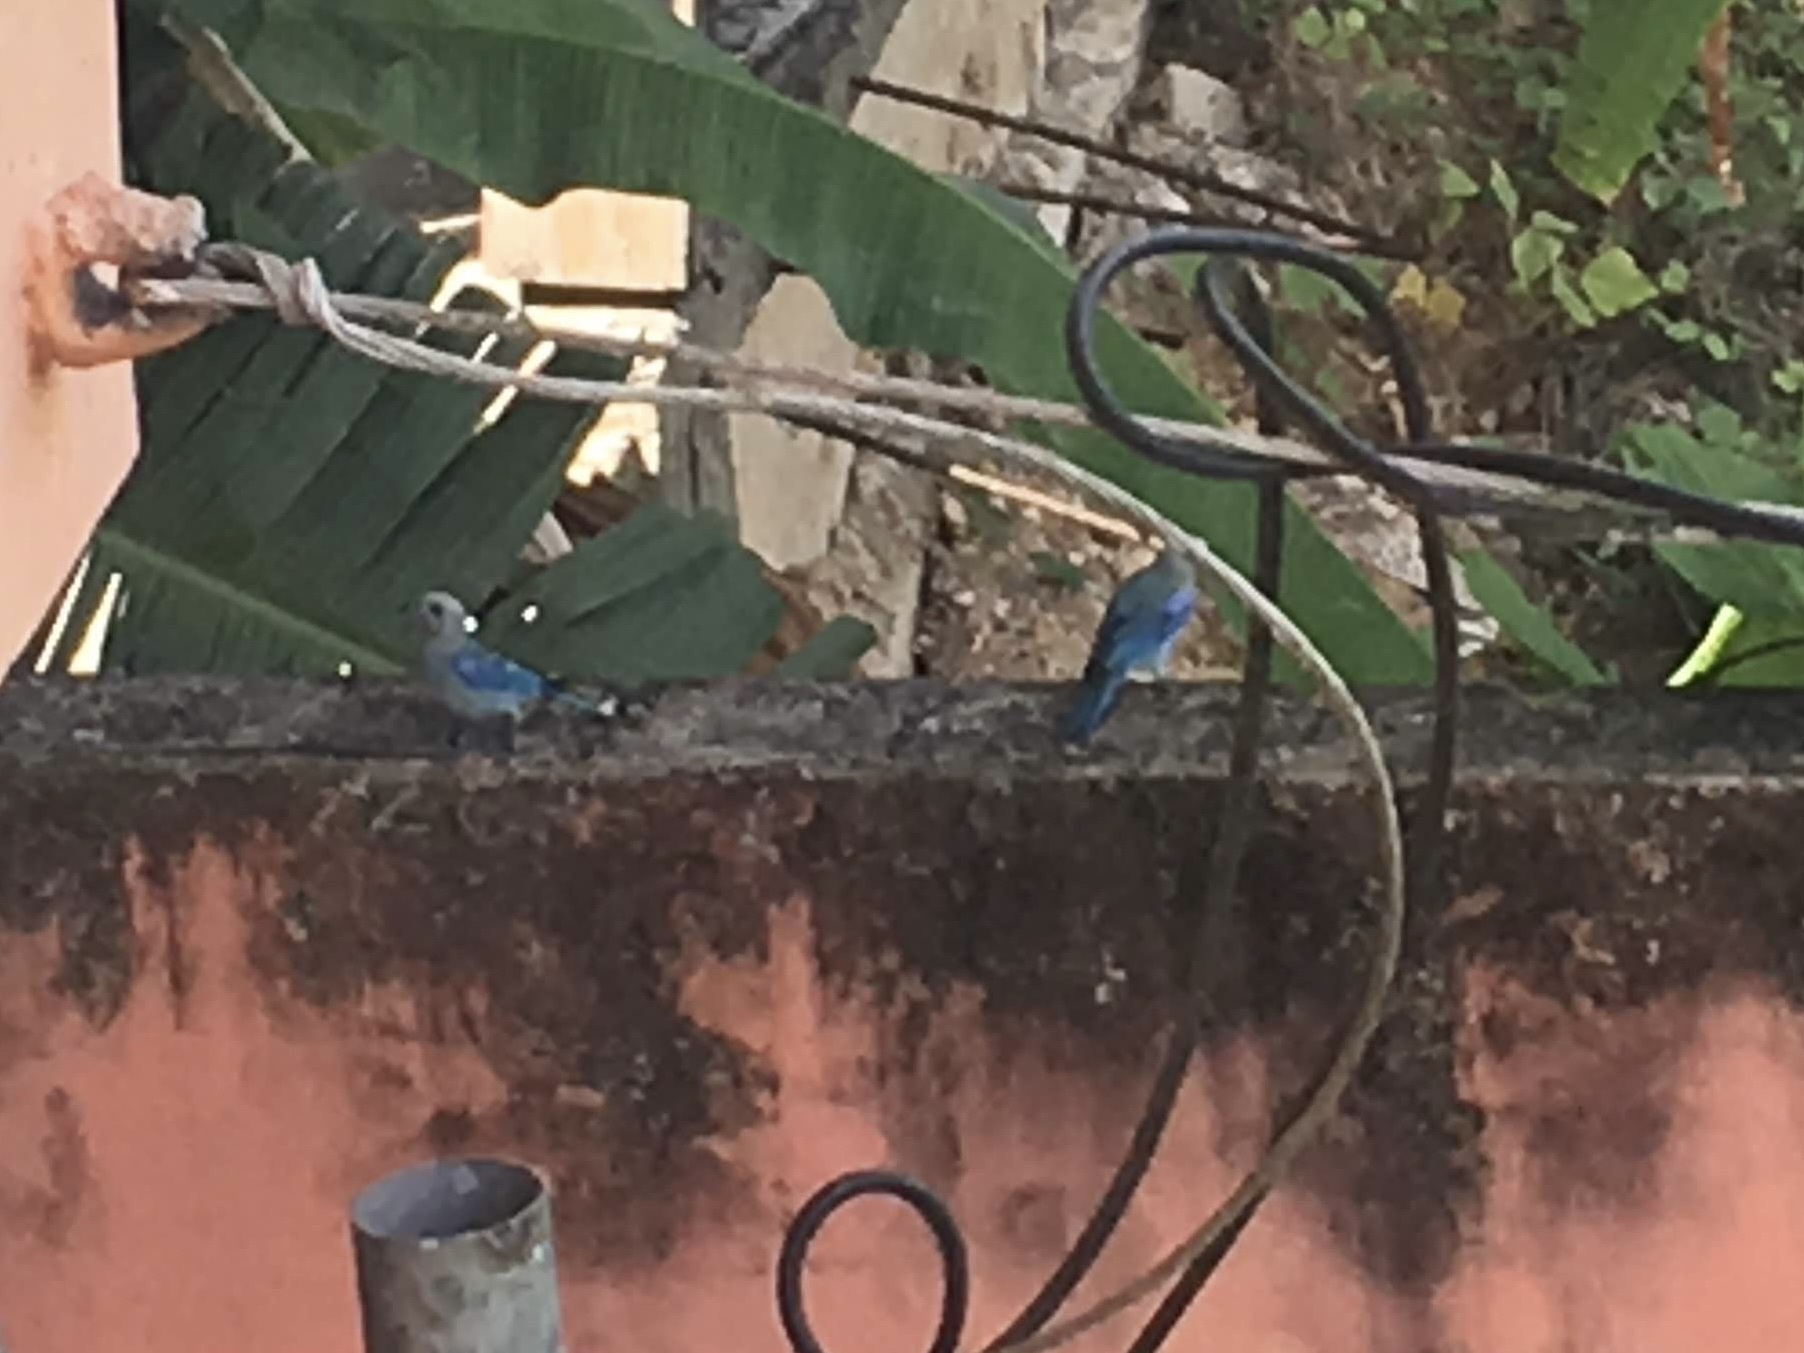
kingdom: Animalia
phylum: Chordata
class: Aves
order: Passeriformes
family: Thraupidae
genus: Thraupis
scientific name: Thraupis episcopus
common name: Blue-grey tanager
